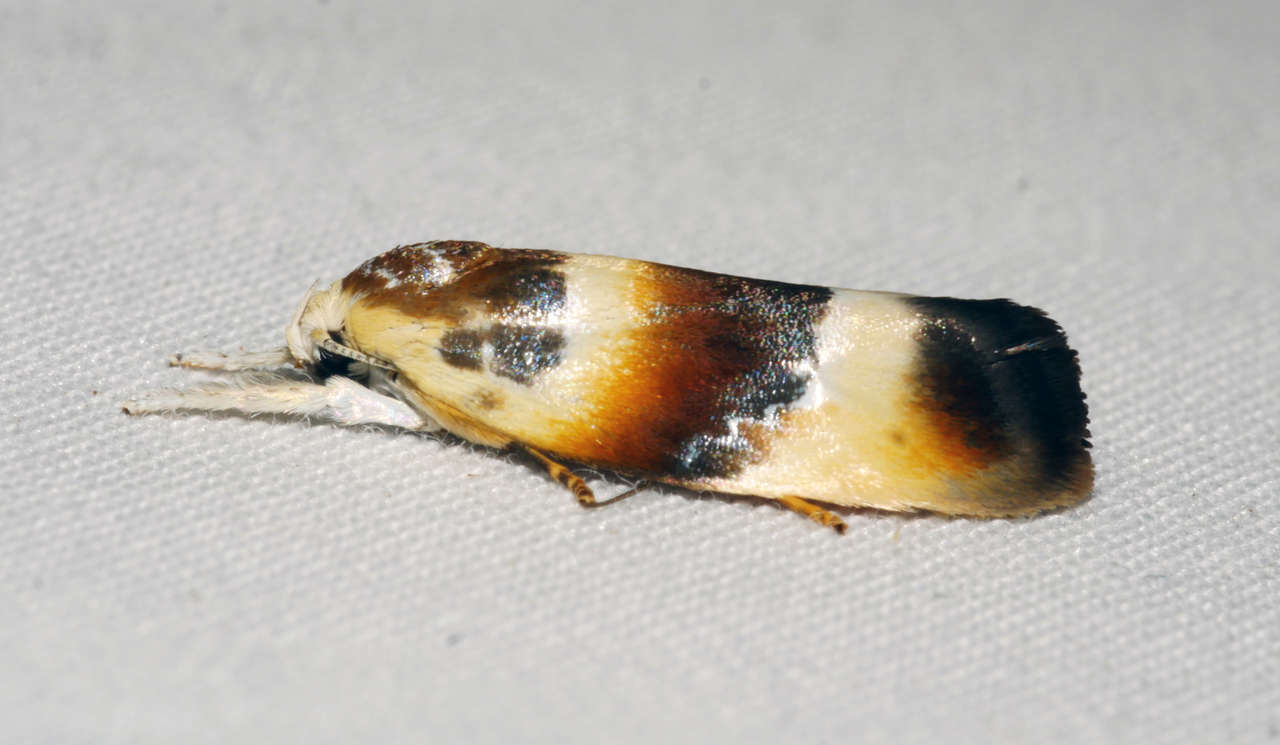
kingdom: Animalia
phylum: Arthropoda
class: Insecta
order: Lepidoptera
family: Oecophoridae
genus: Piloprepes
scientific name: Piloprepes anassa
